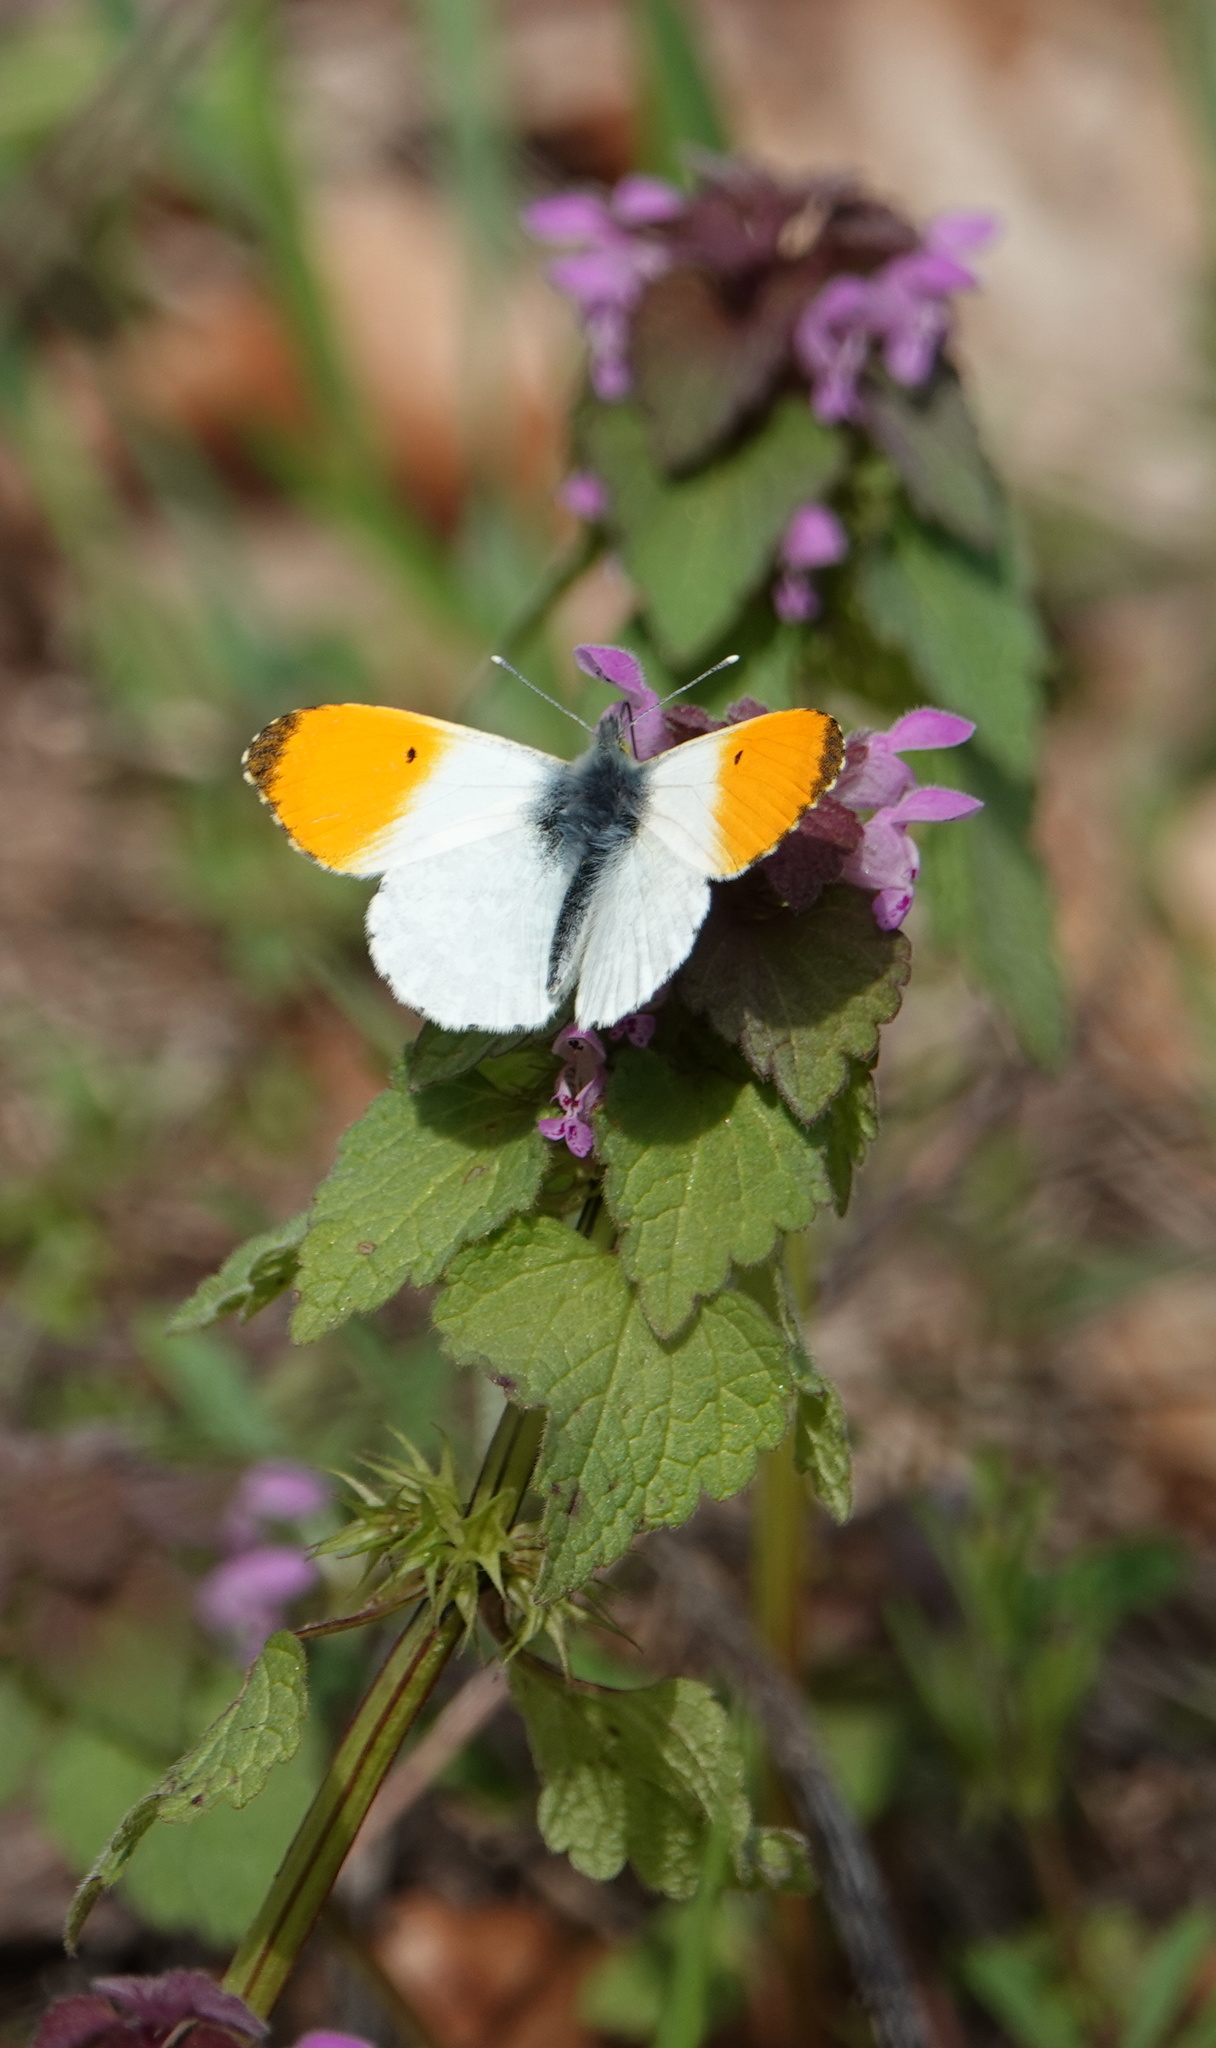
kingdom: Animalia
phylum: Arthropoda
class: Insecta
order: Lepidoptera
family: Pieridae
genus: Anthocharis
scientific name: Anthocharis cardamines
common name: Orange-tip
